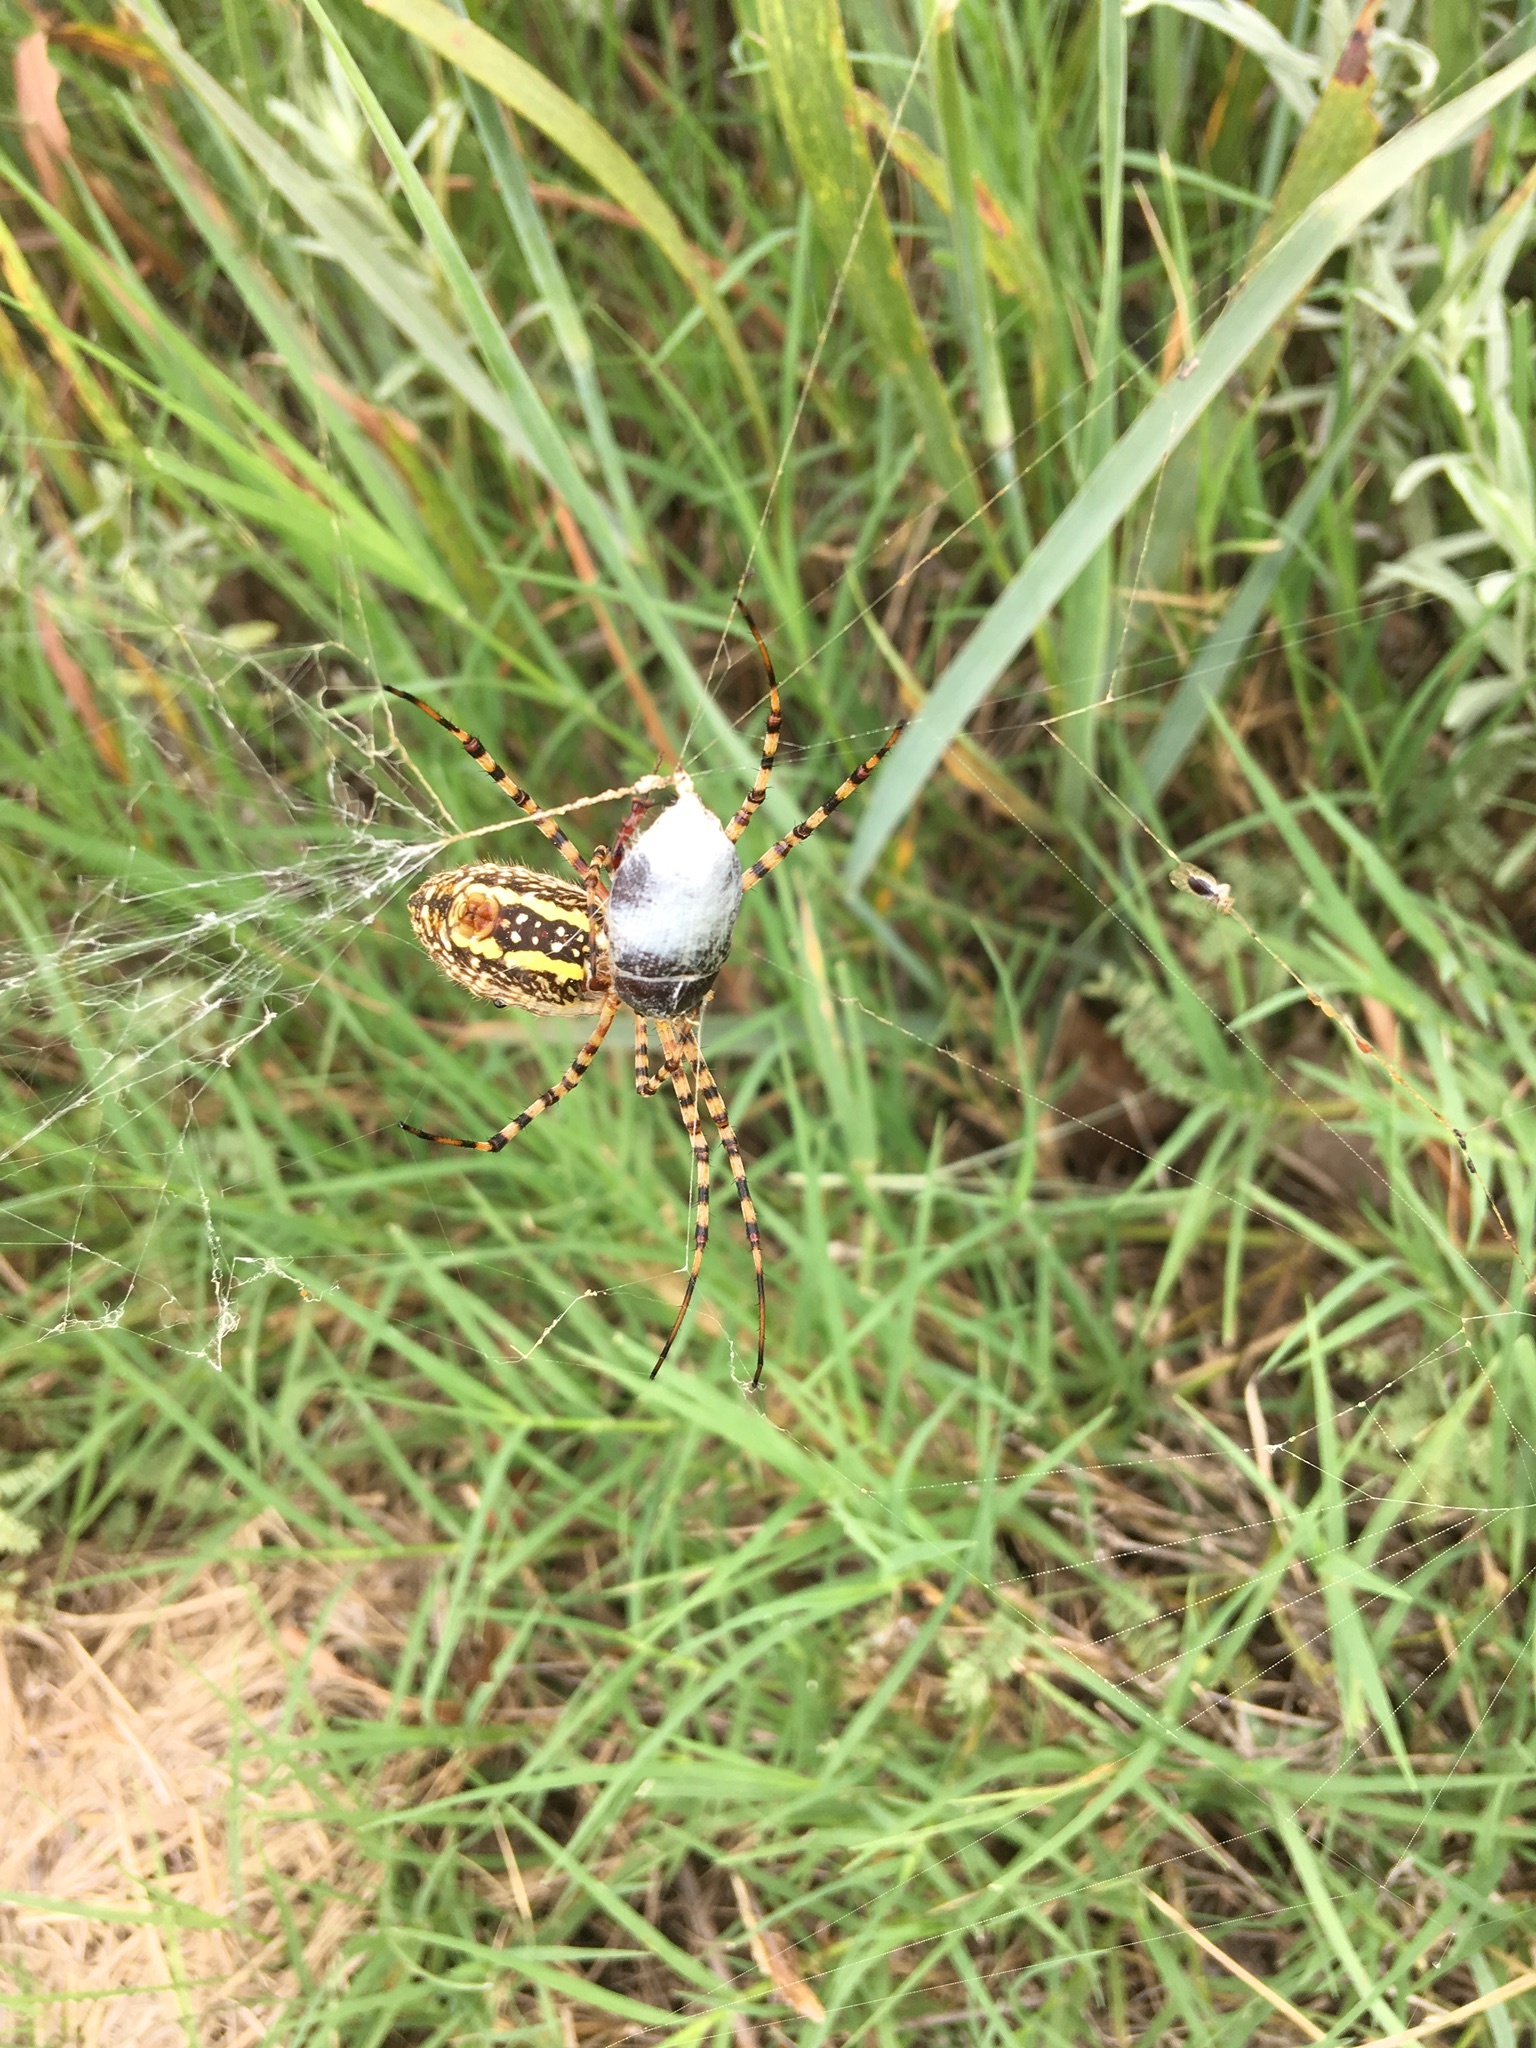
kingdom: Animalia
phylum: Arthropoda
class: Arachnida
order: Araneae
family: Araneidae
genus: Argiope
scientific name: Argiope trifasciata
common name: Banded garden spider
